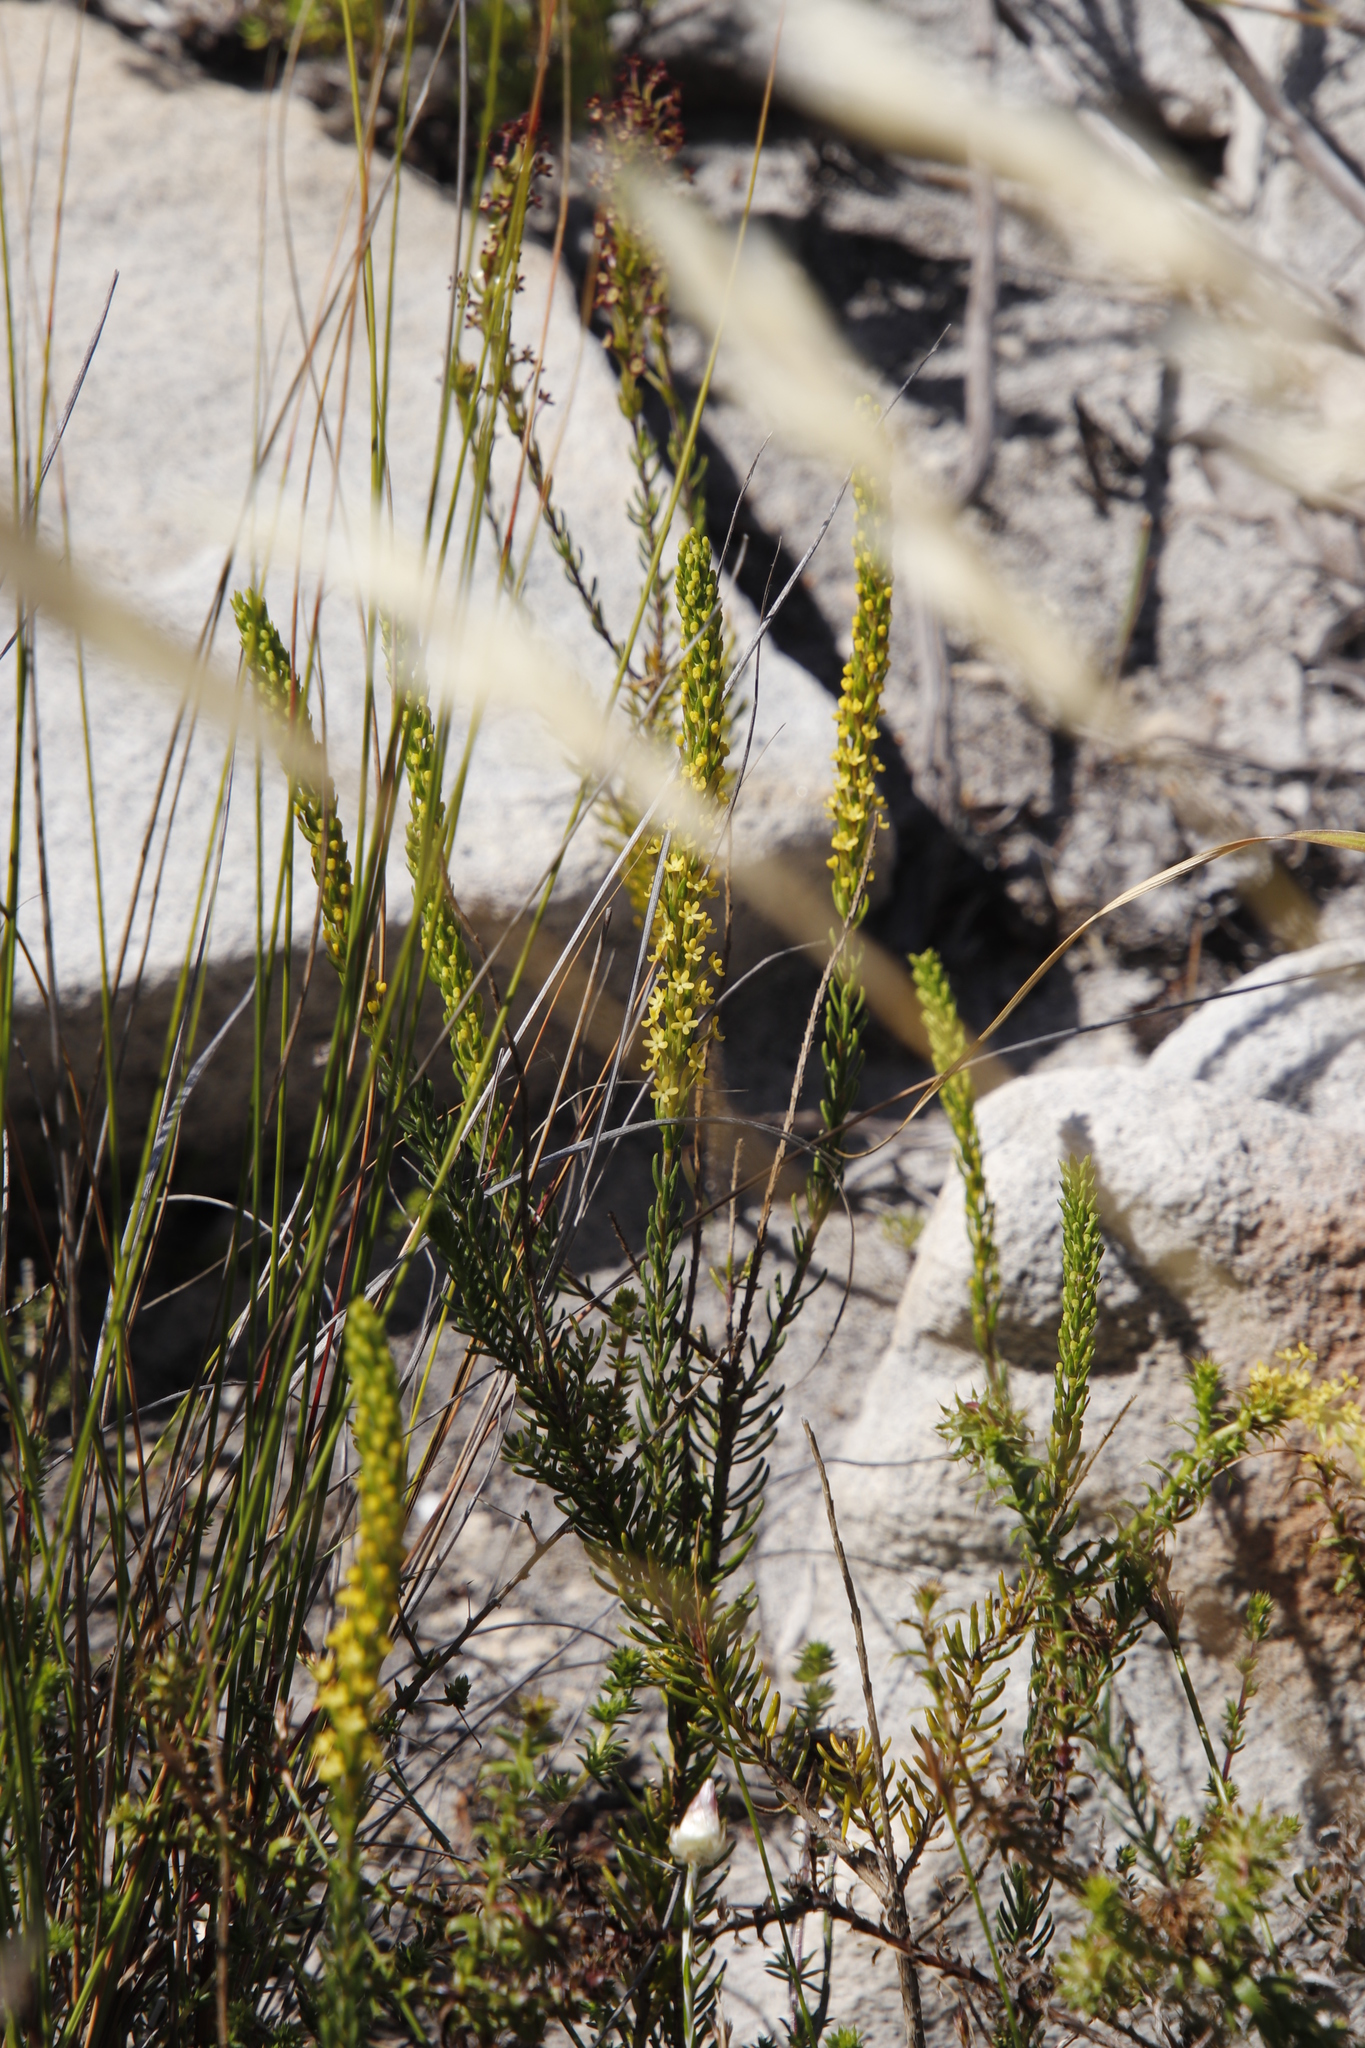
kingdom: Plantae
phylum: Tracheophyta
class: Magnoliopsida
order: Lamiales
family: Scrophulariaceae
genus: Microdon
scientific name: Microdon dubius
